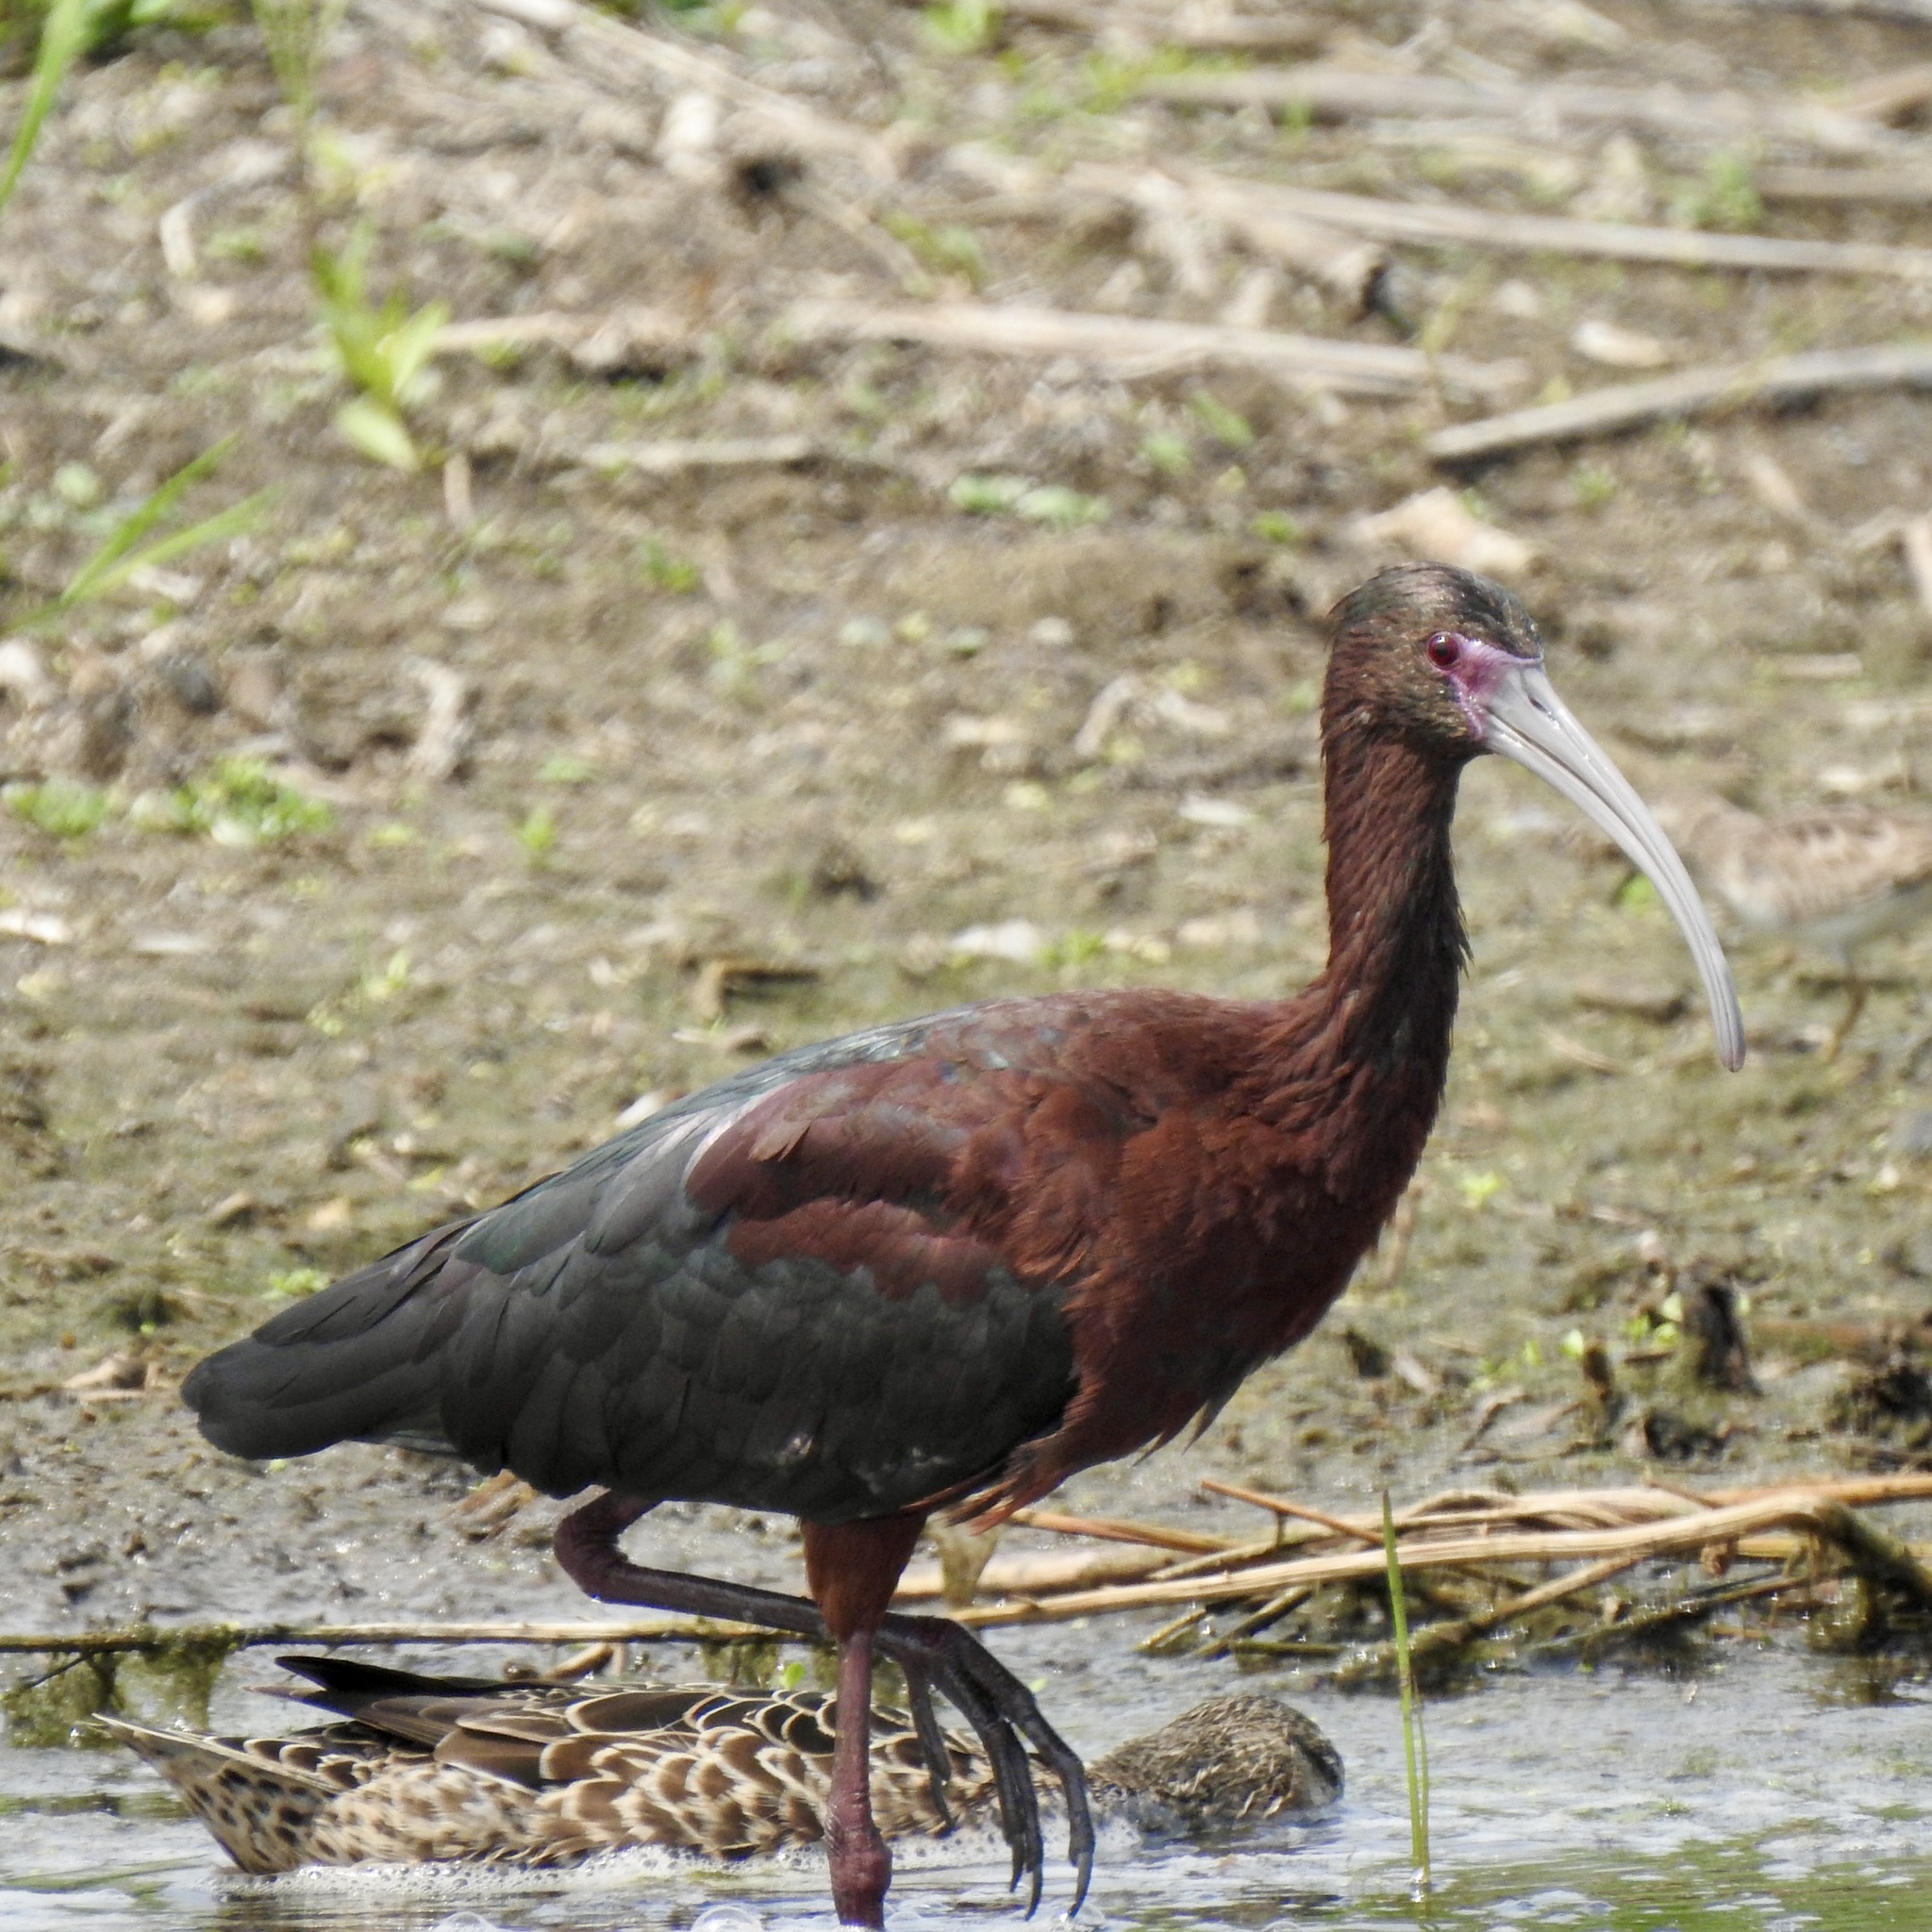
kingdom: Animalia
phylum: Chordata
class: Aves
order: Pelecaniformes
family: Threskiornithidae
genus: Plegadis
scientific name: Plegadis chihi
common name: White-faced ibis
